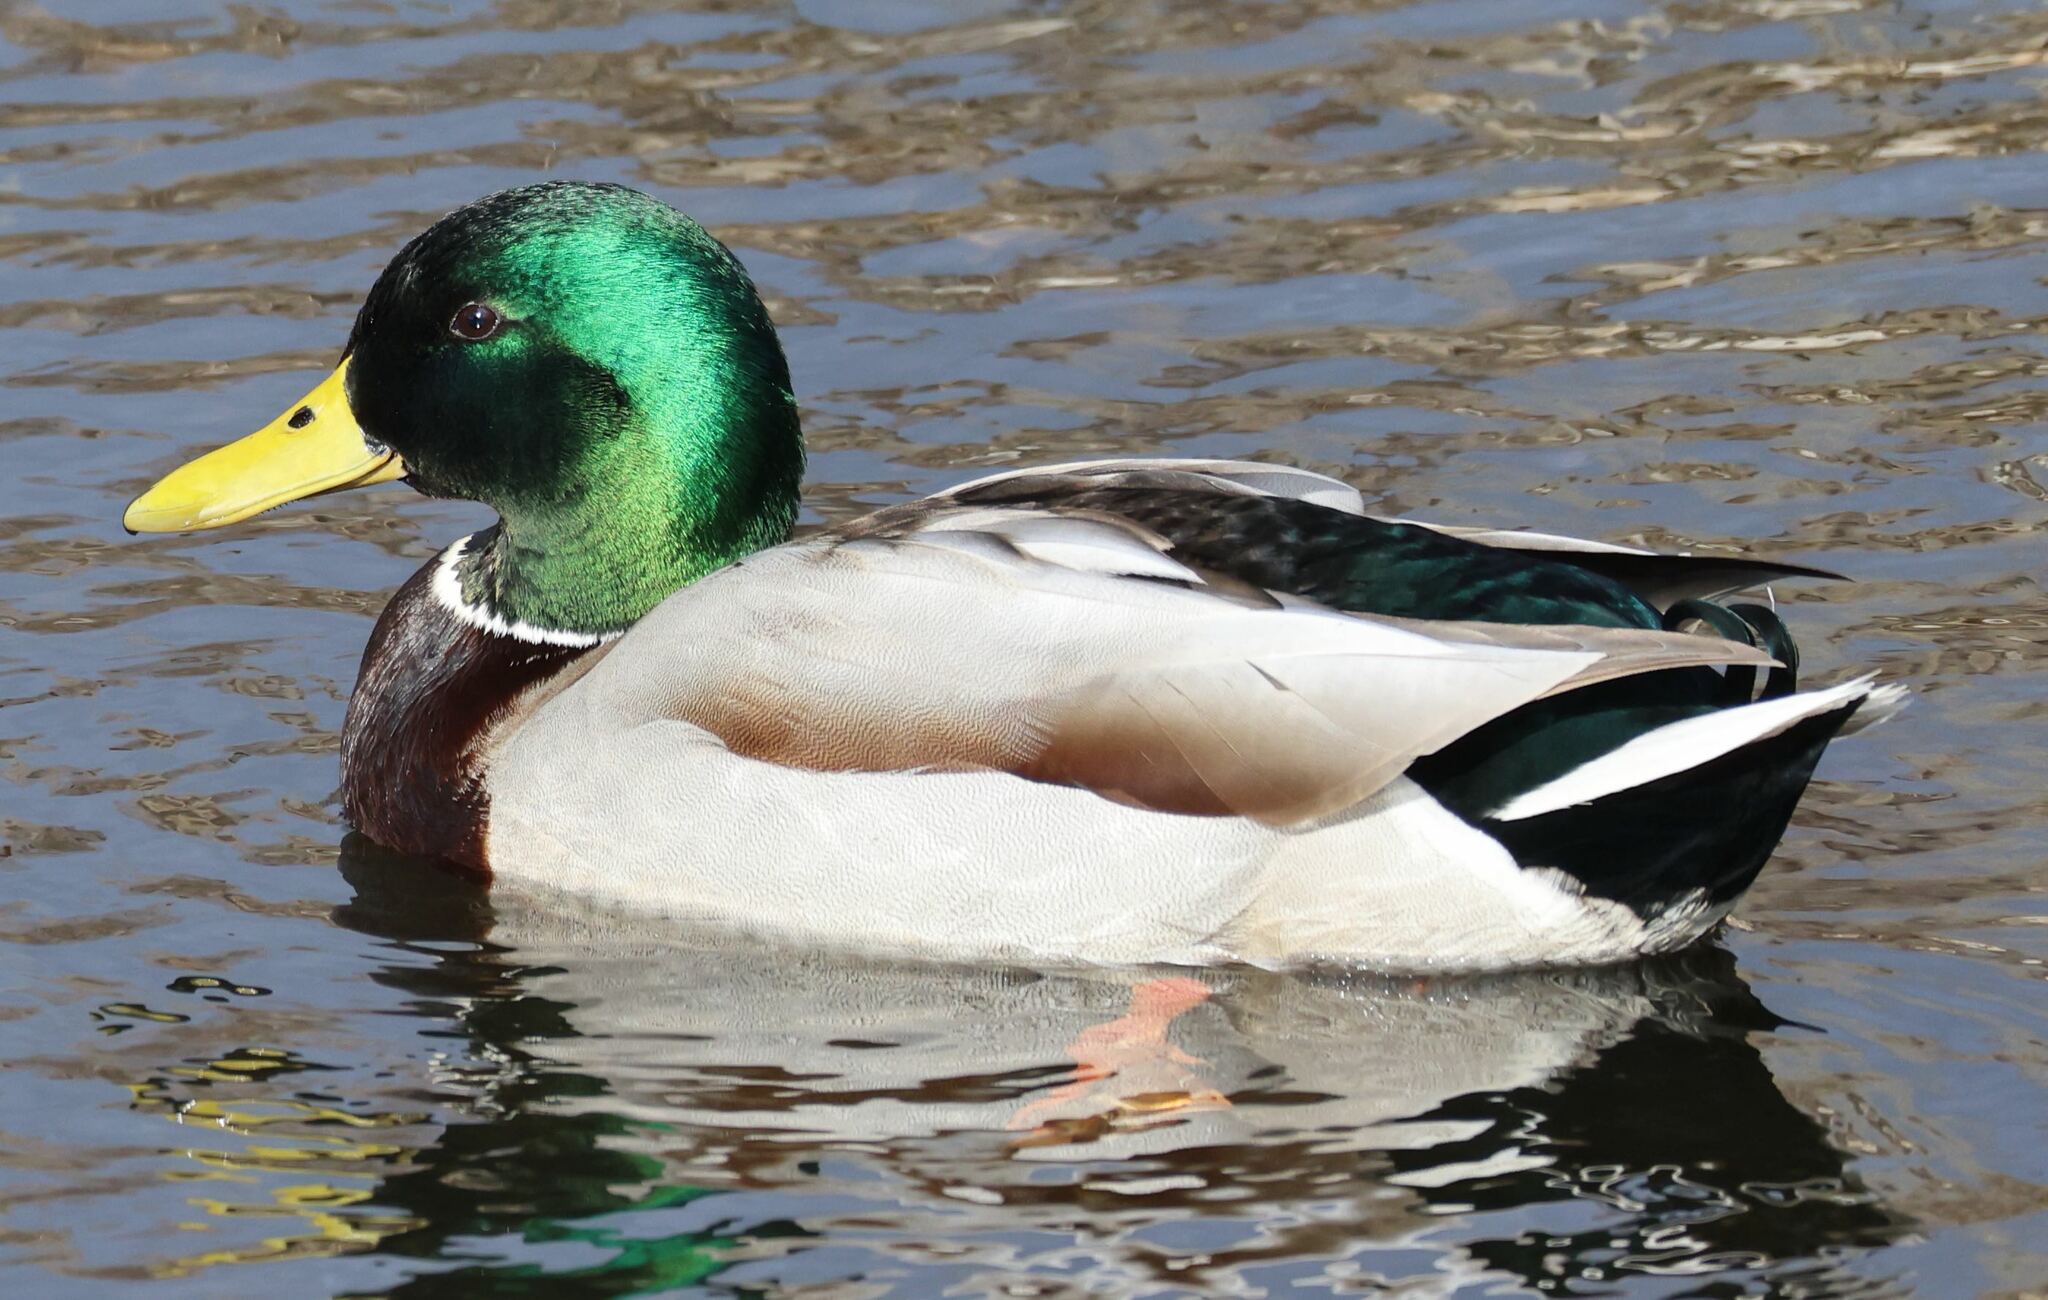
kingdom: Animalia
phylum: Chordata
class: Aves
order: Anseriformes
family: Anatidae
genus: Anas
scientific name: Anas platyrhynchos
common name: Mallard
